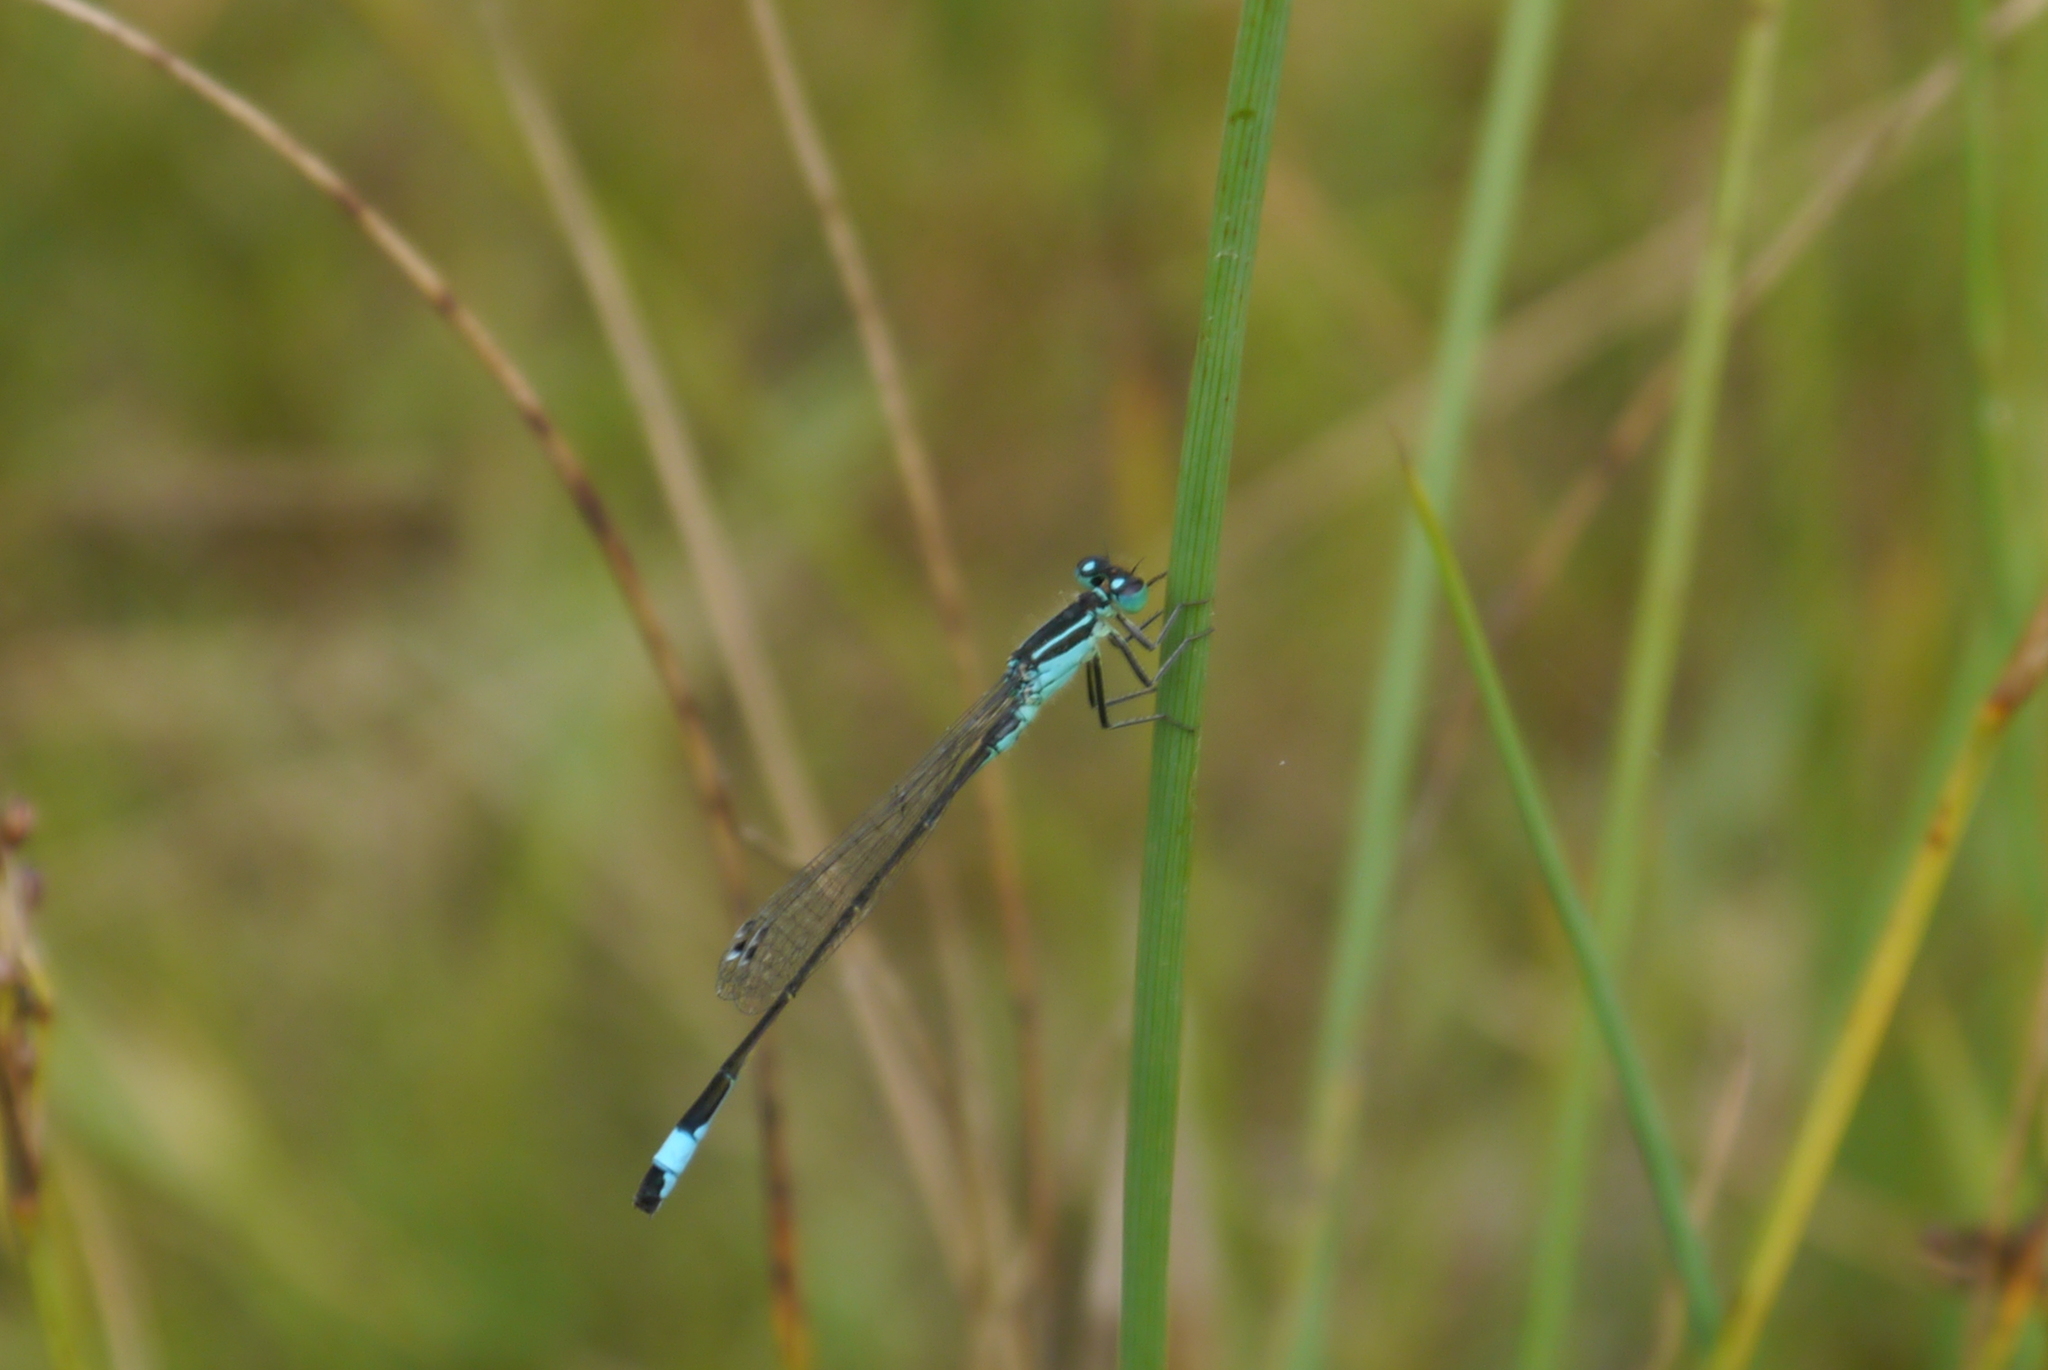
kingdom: Animalia
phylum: Arthropoda
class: Insecta
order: Odonata
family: Coenagrionidae
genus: Ischnura
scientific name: Ischnura elegans
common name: Blue-tailed damselfly
